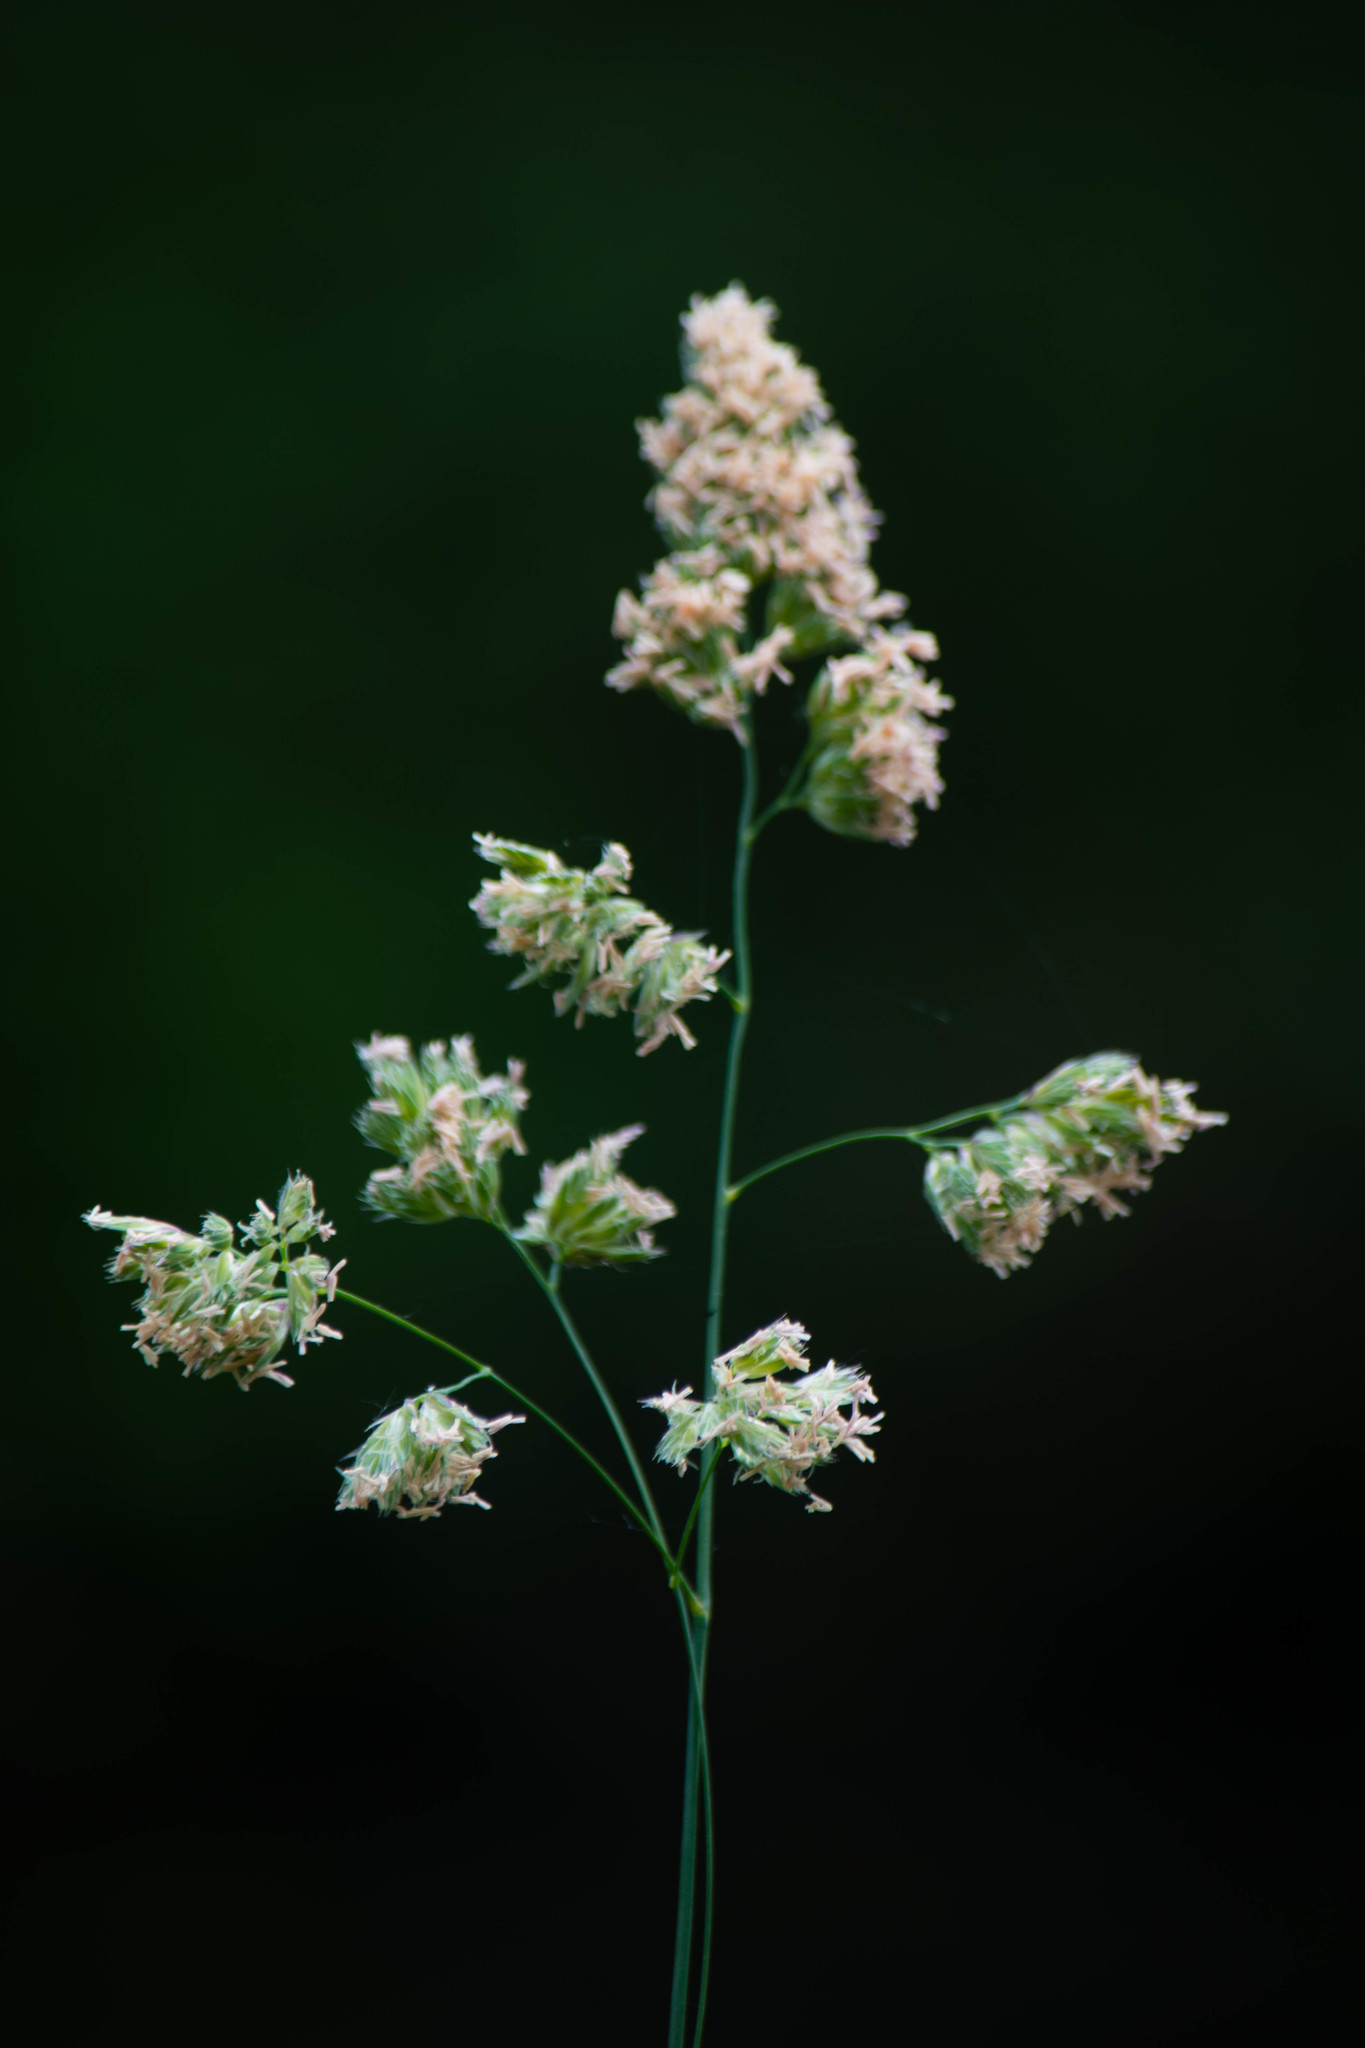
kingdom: Plantae
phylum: Tracheophyta
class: Liliopsida
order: Poales
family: Poaceae
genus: Dactylis
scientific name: Dactylis glomerata
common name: Orchardgrass
